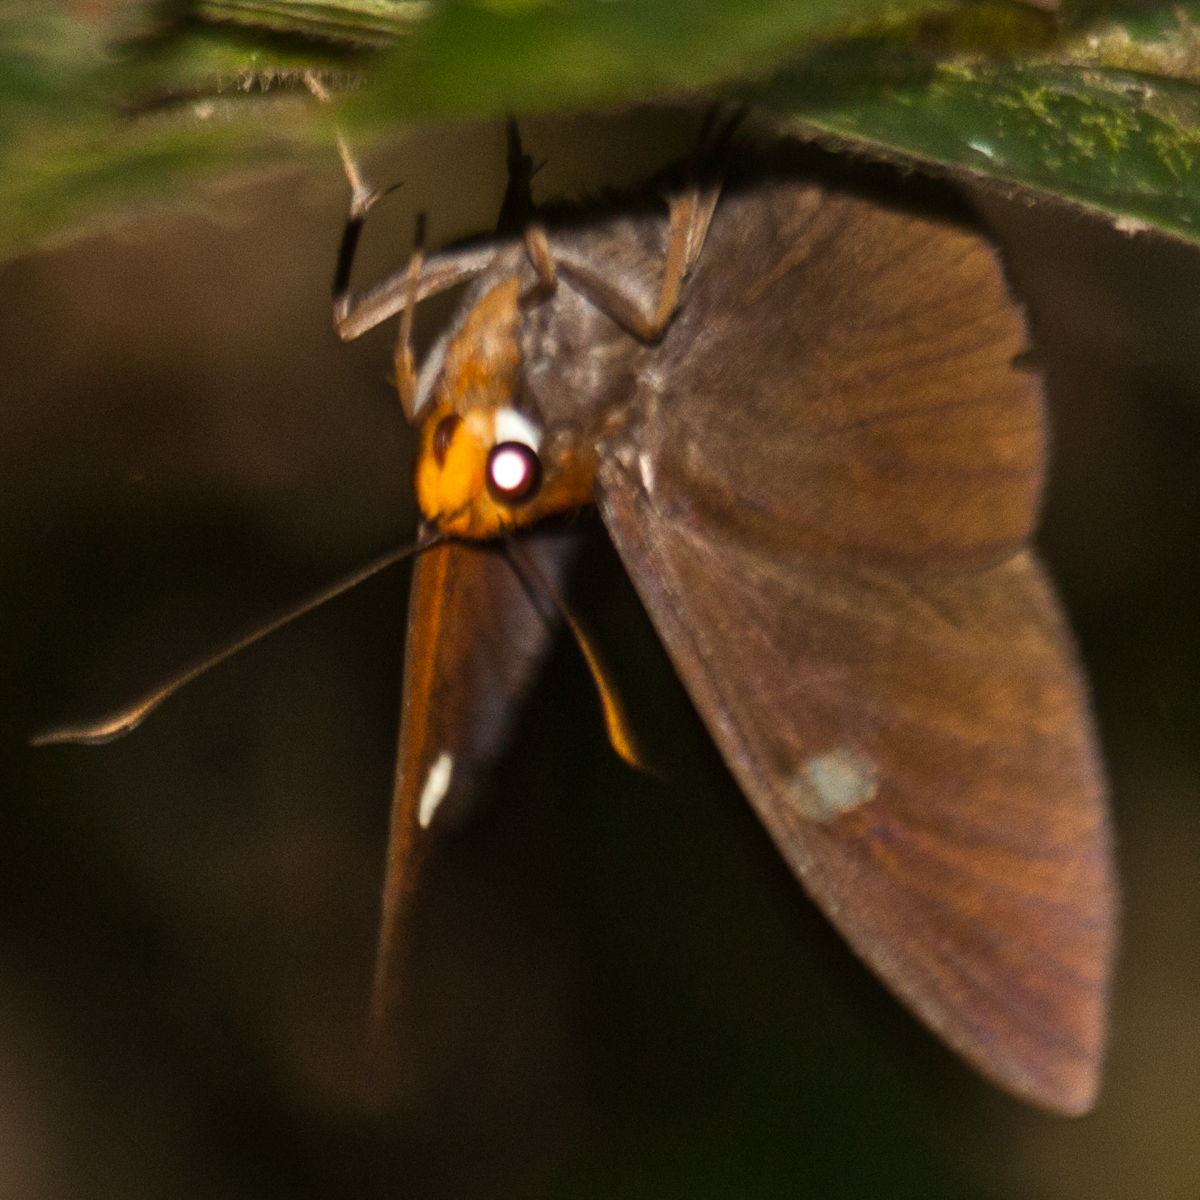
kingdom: Animalia
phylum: Arthropoda
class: Insecta
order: Lepidoptera
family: Hesperiidae
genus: Capila
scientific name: Capila hainana
